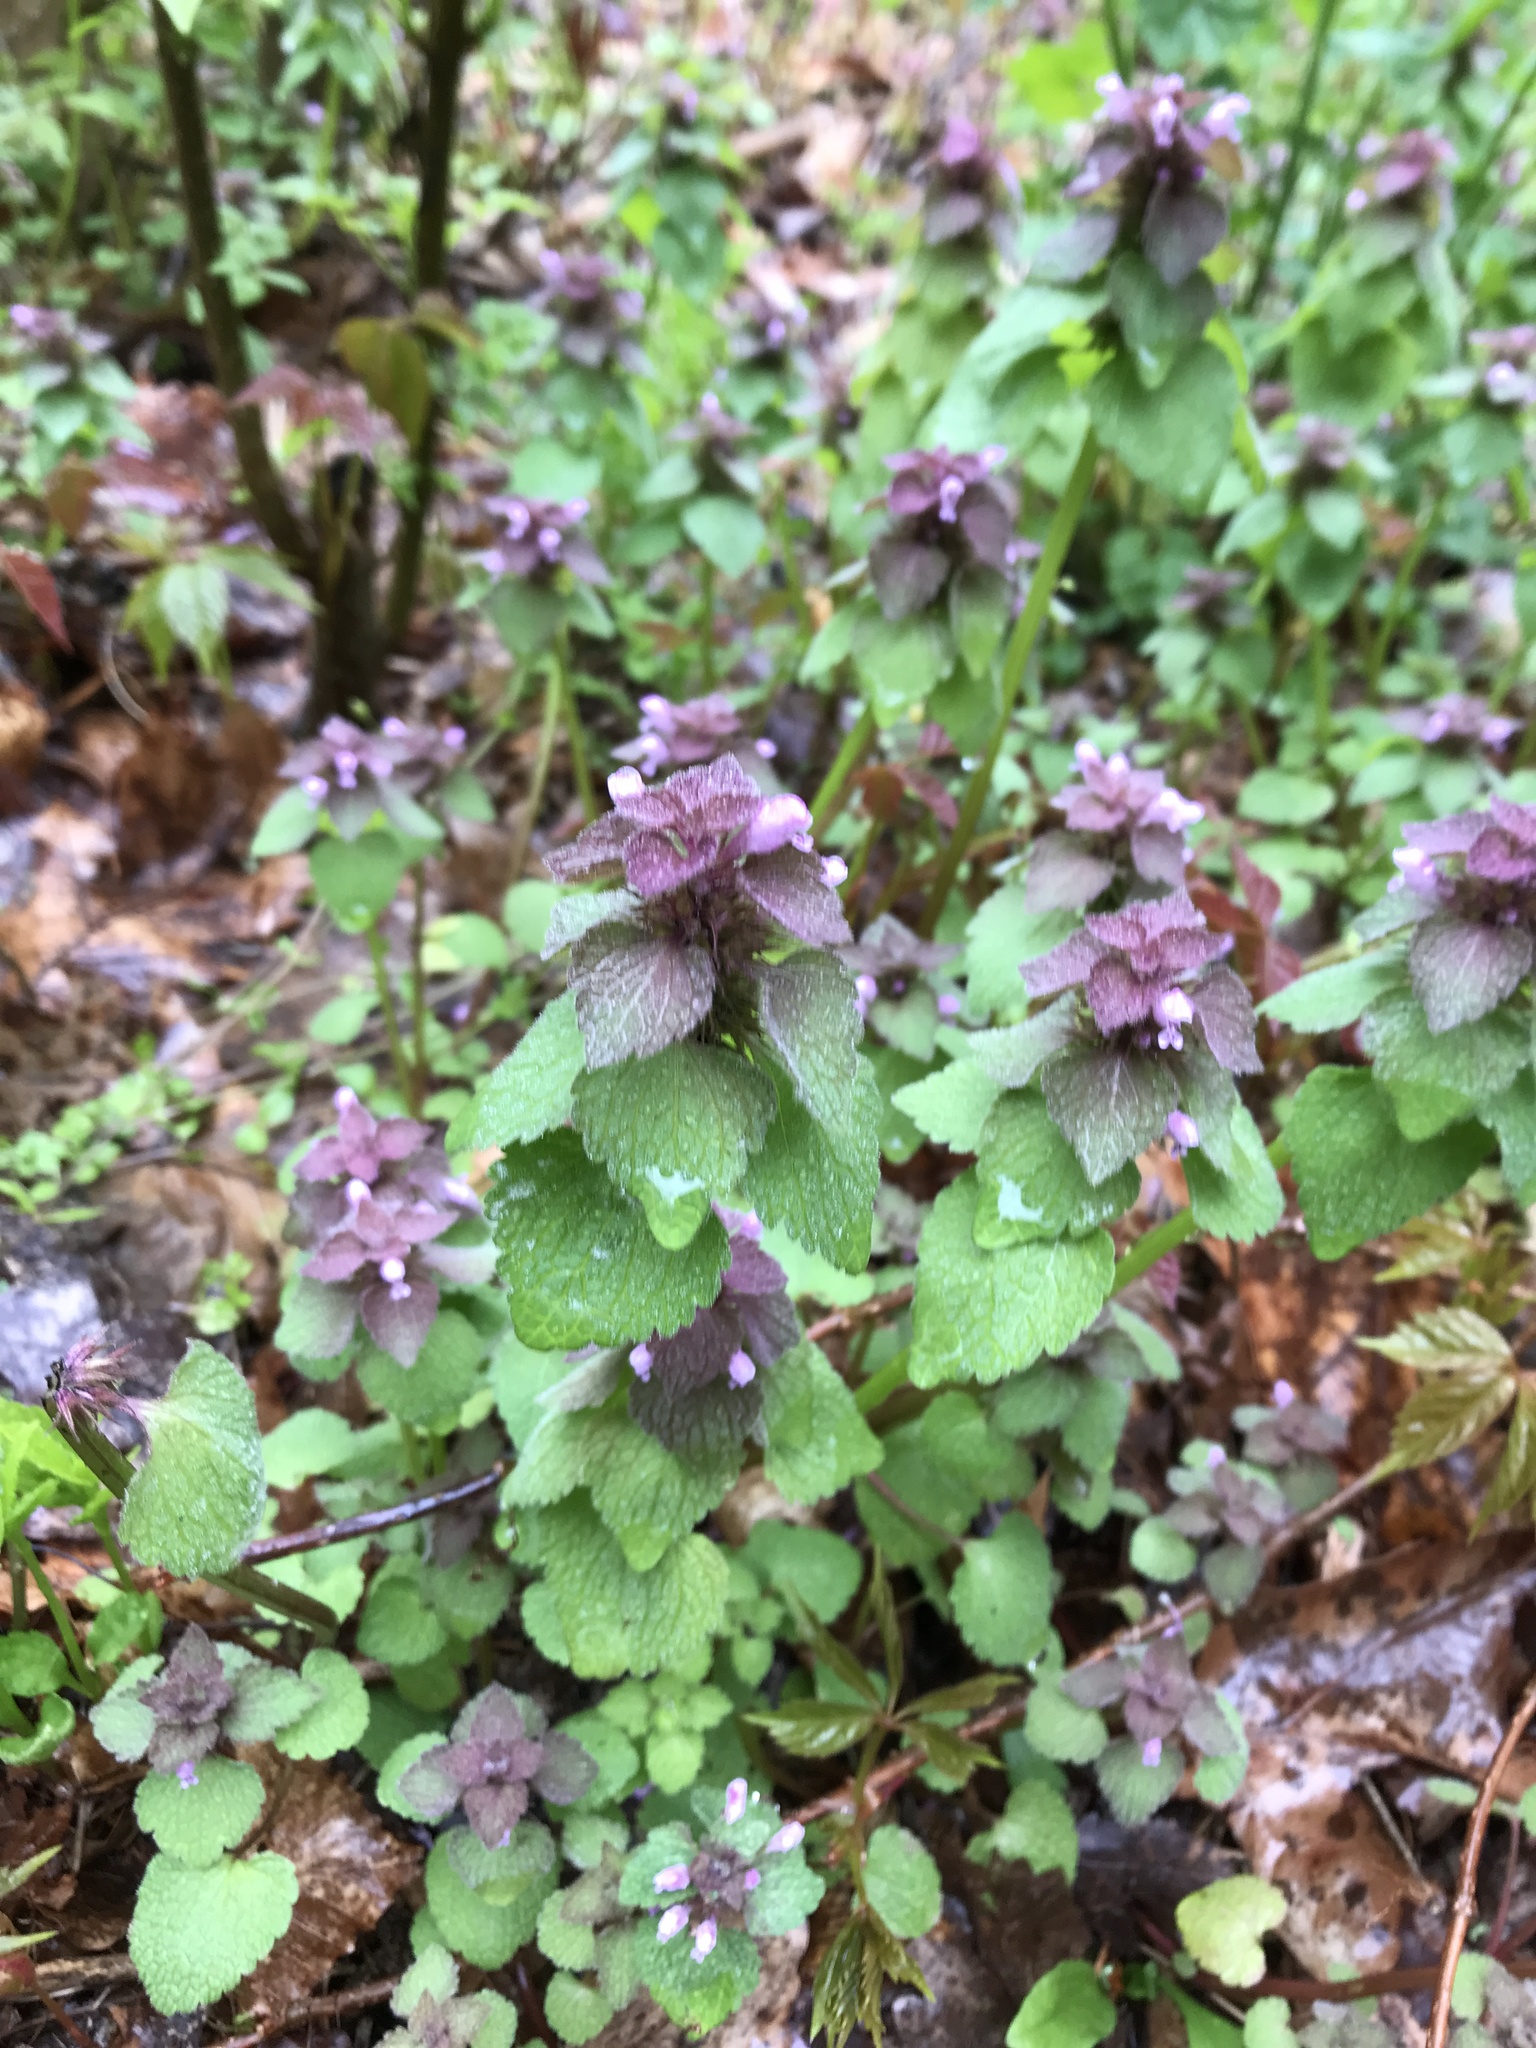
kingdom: Plantae
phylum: Tracheophyta
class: Magnoliopsida
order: Lamiales
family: Lamiaceae
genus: Lamium
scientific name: Lamium purpureum
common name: Red dead-nettle
